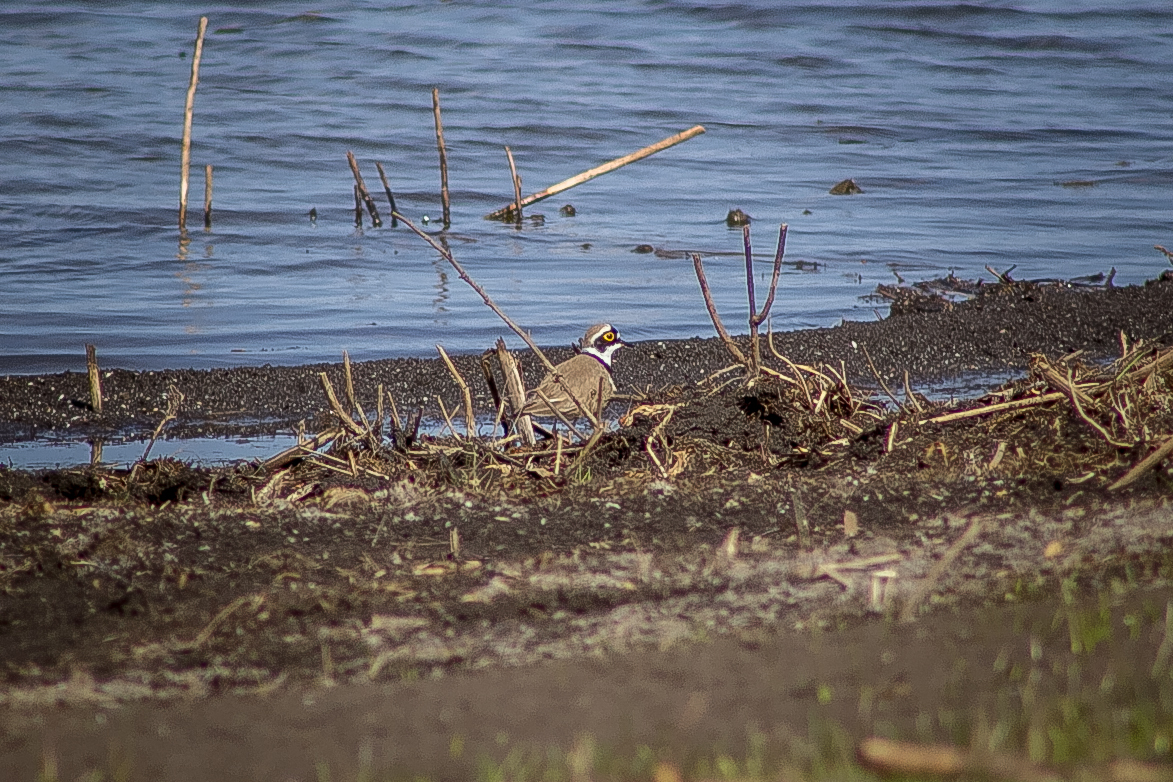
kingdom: Animalia
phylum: Chordata
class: Aves
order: Charadriiformes
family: Charadriidae
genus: Charadrius
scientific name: Charadrius dubius
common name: Little ringed plover
